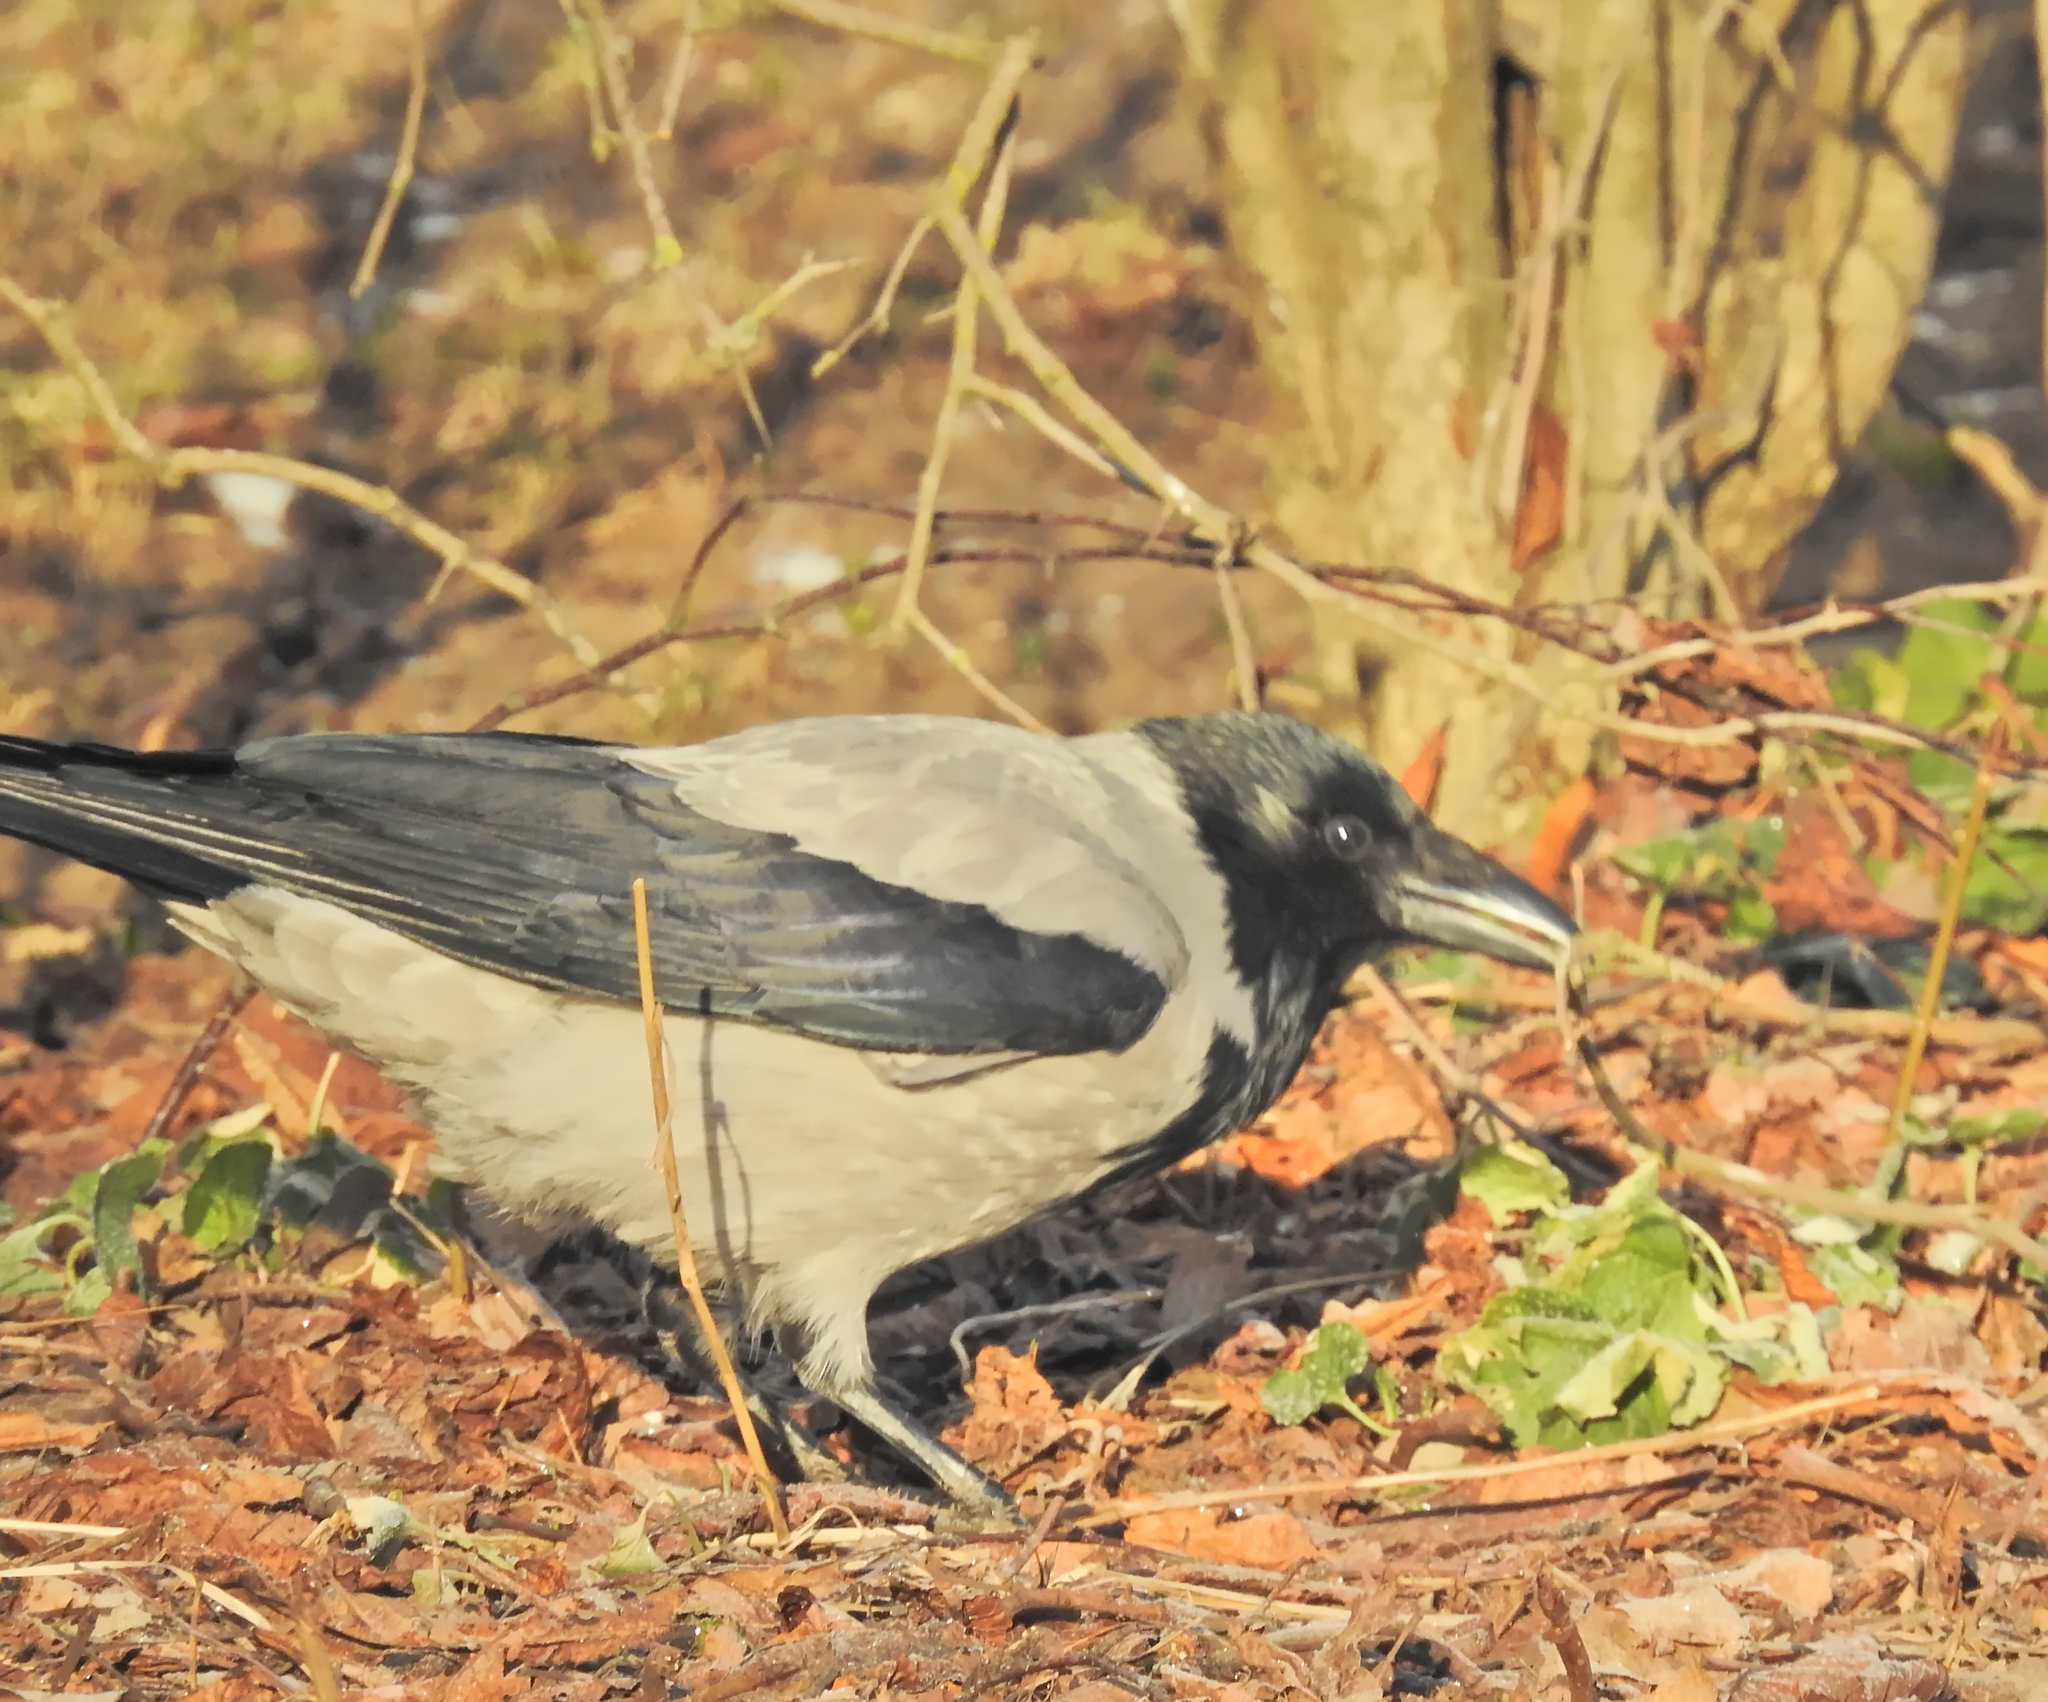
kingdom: Animalia
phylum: Chordata
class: Aves
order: Passeriformes
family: Corvidae
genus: Corvus
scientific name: Corvus cornix
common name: Hooded crow
